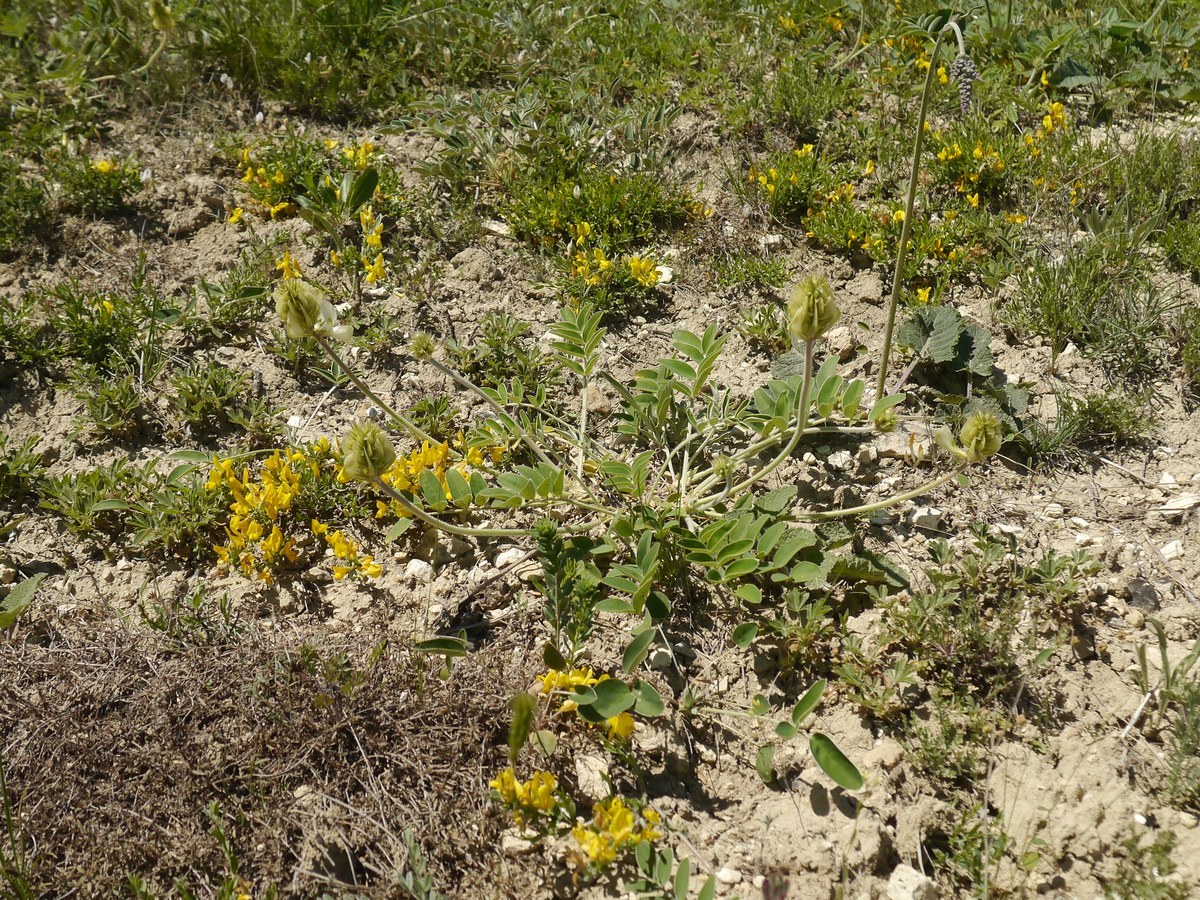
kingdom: Plantae
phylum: Tracheophyta
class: Magnoliopsida
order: Fabales
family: Fabaceae
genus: Hedysarum
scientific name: Hedysarum grandiflorum
